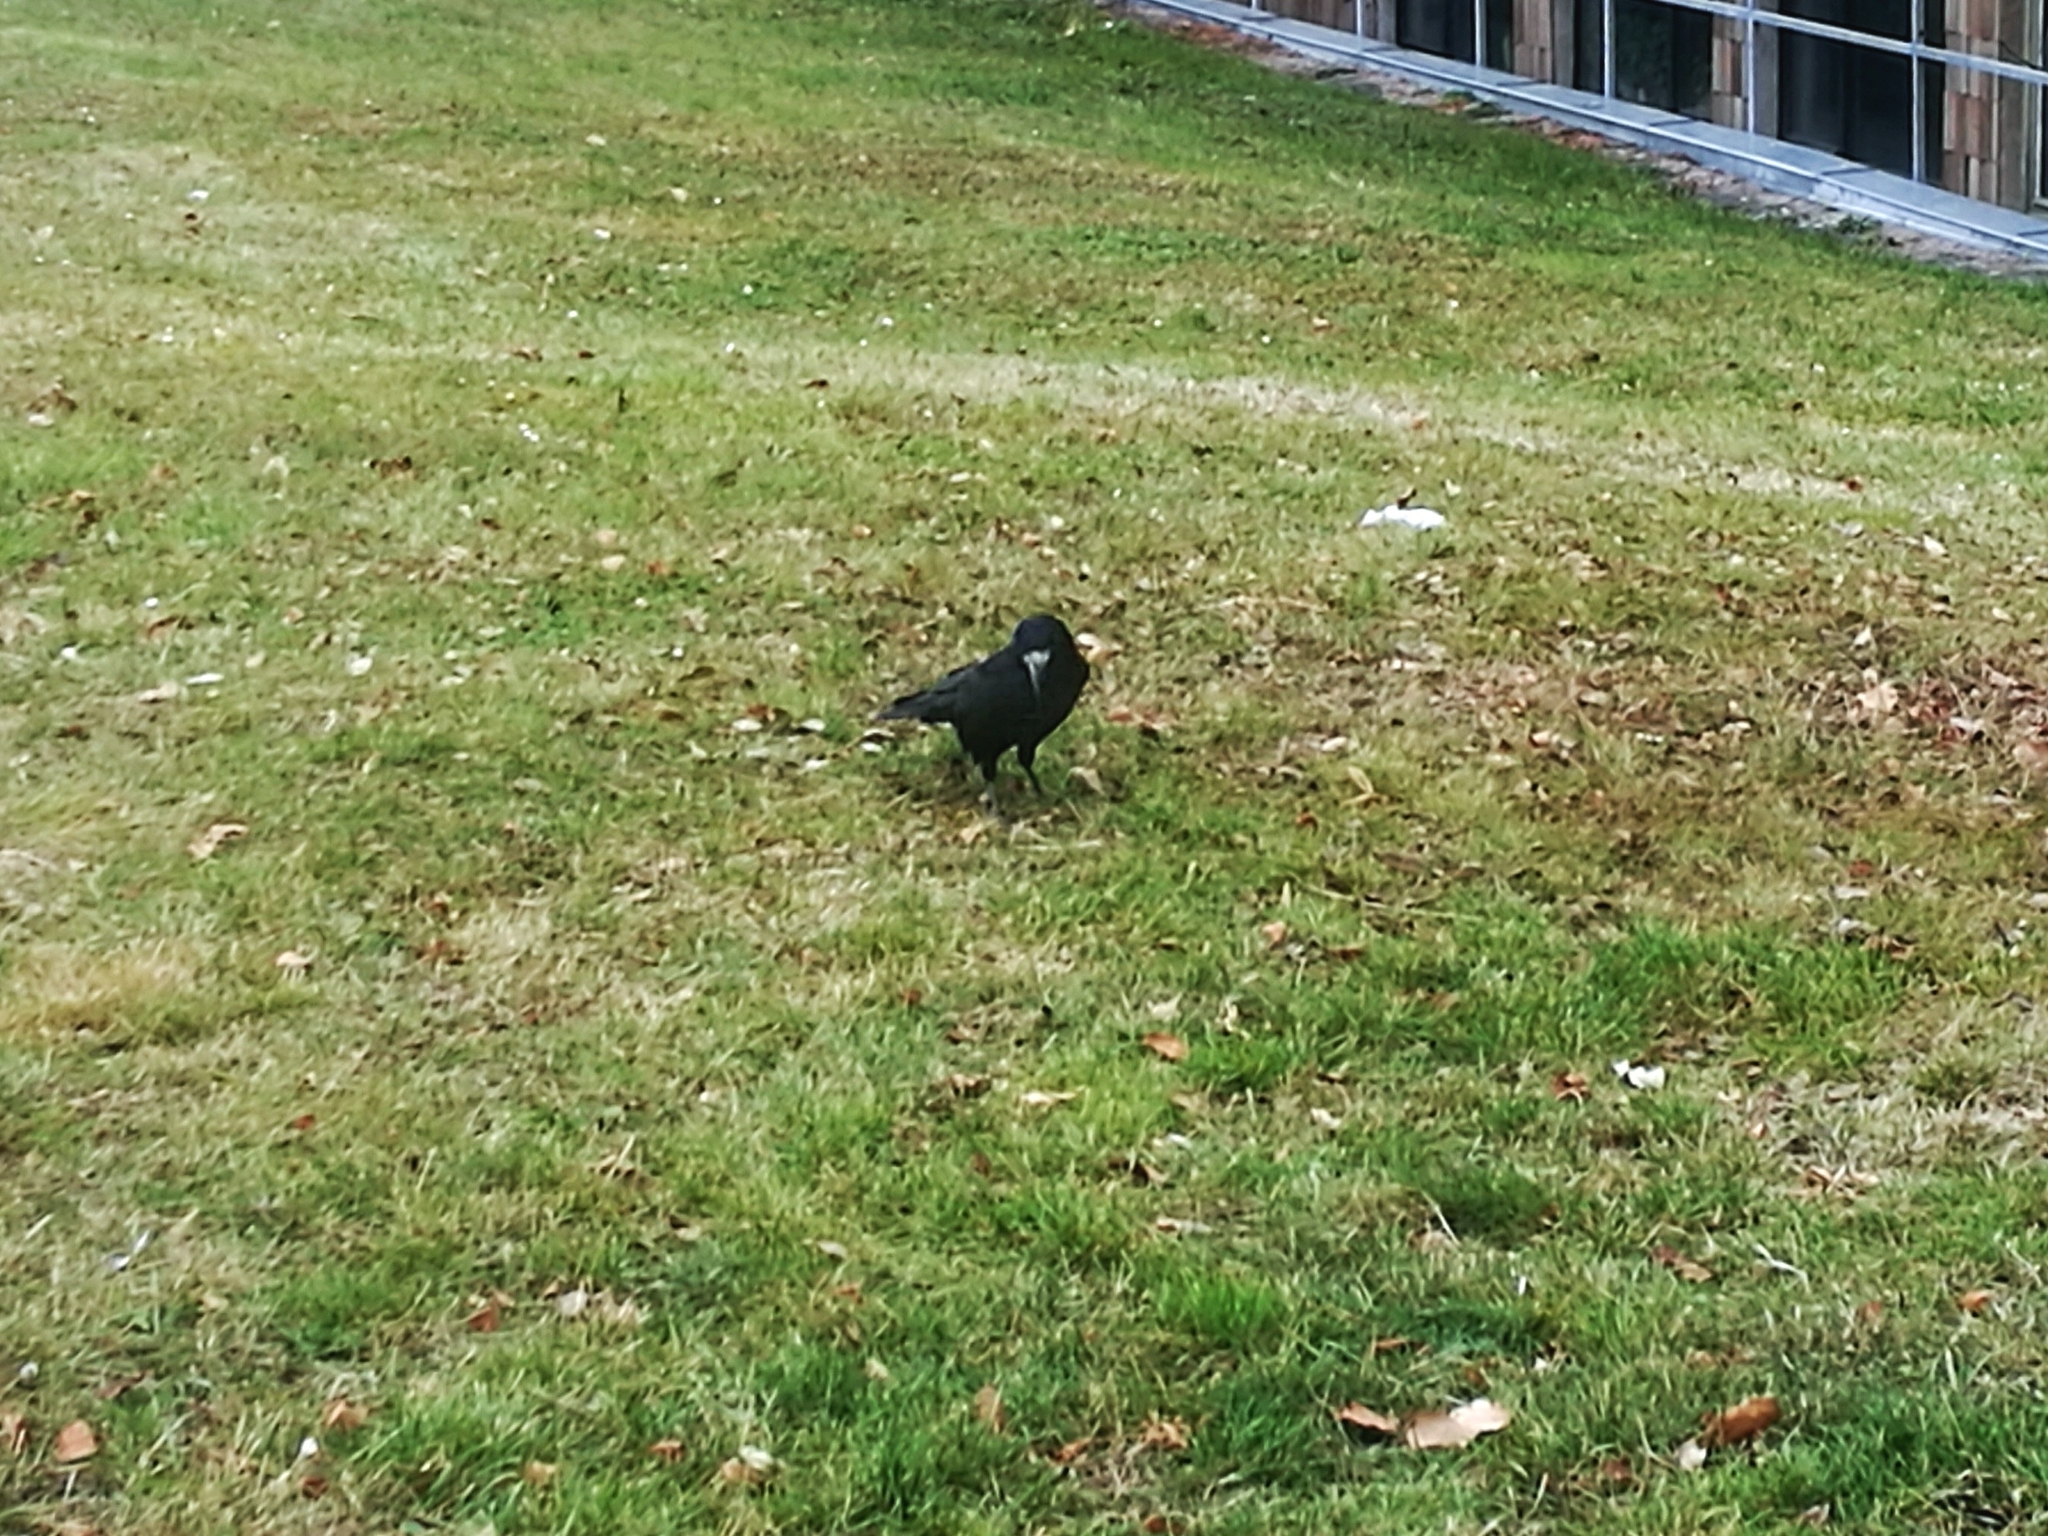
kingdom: Animalia
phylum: Chordata
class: Aves
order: Passeriformes
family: Corvidae
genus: Corvus
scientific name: Corvus frugilegus
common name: Rook
